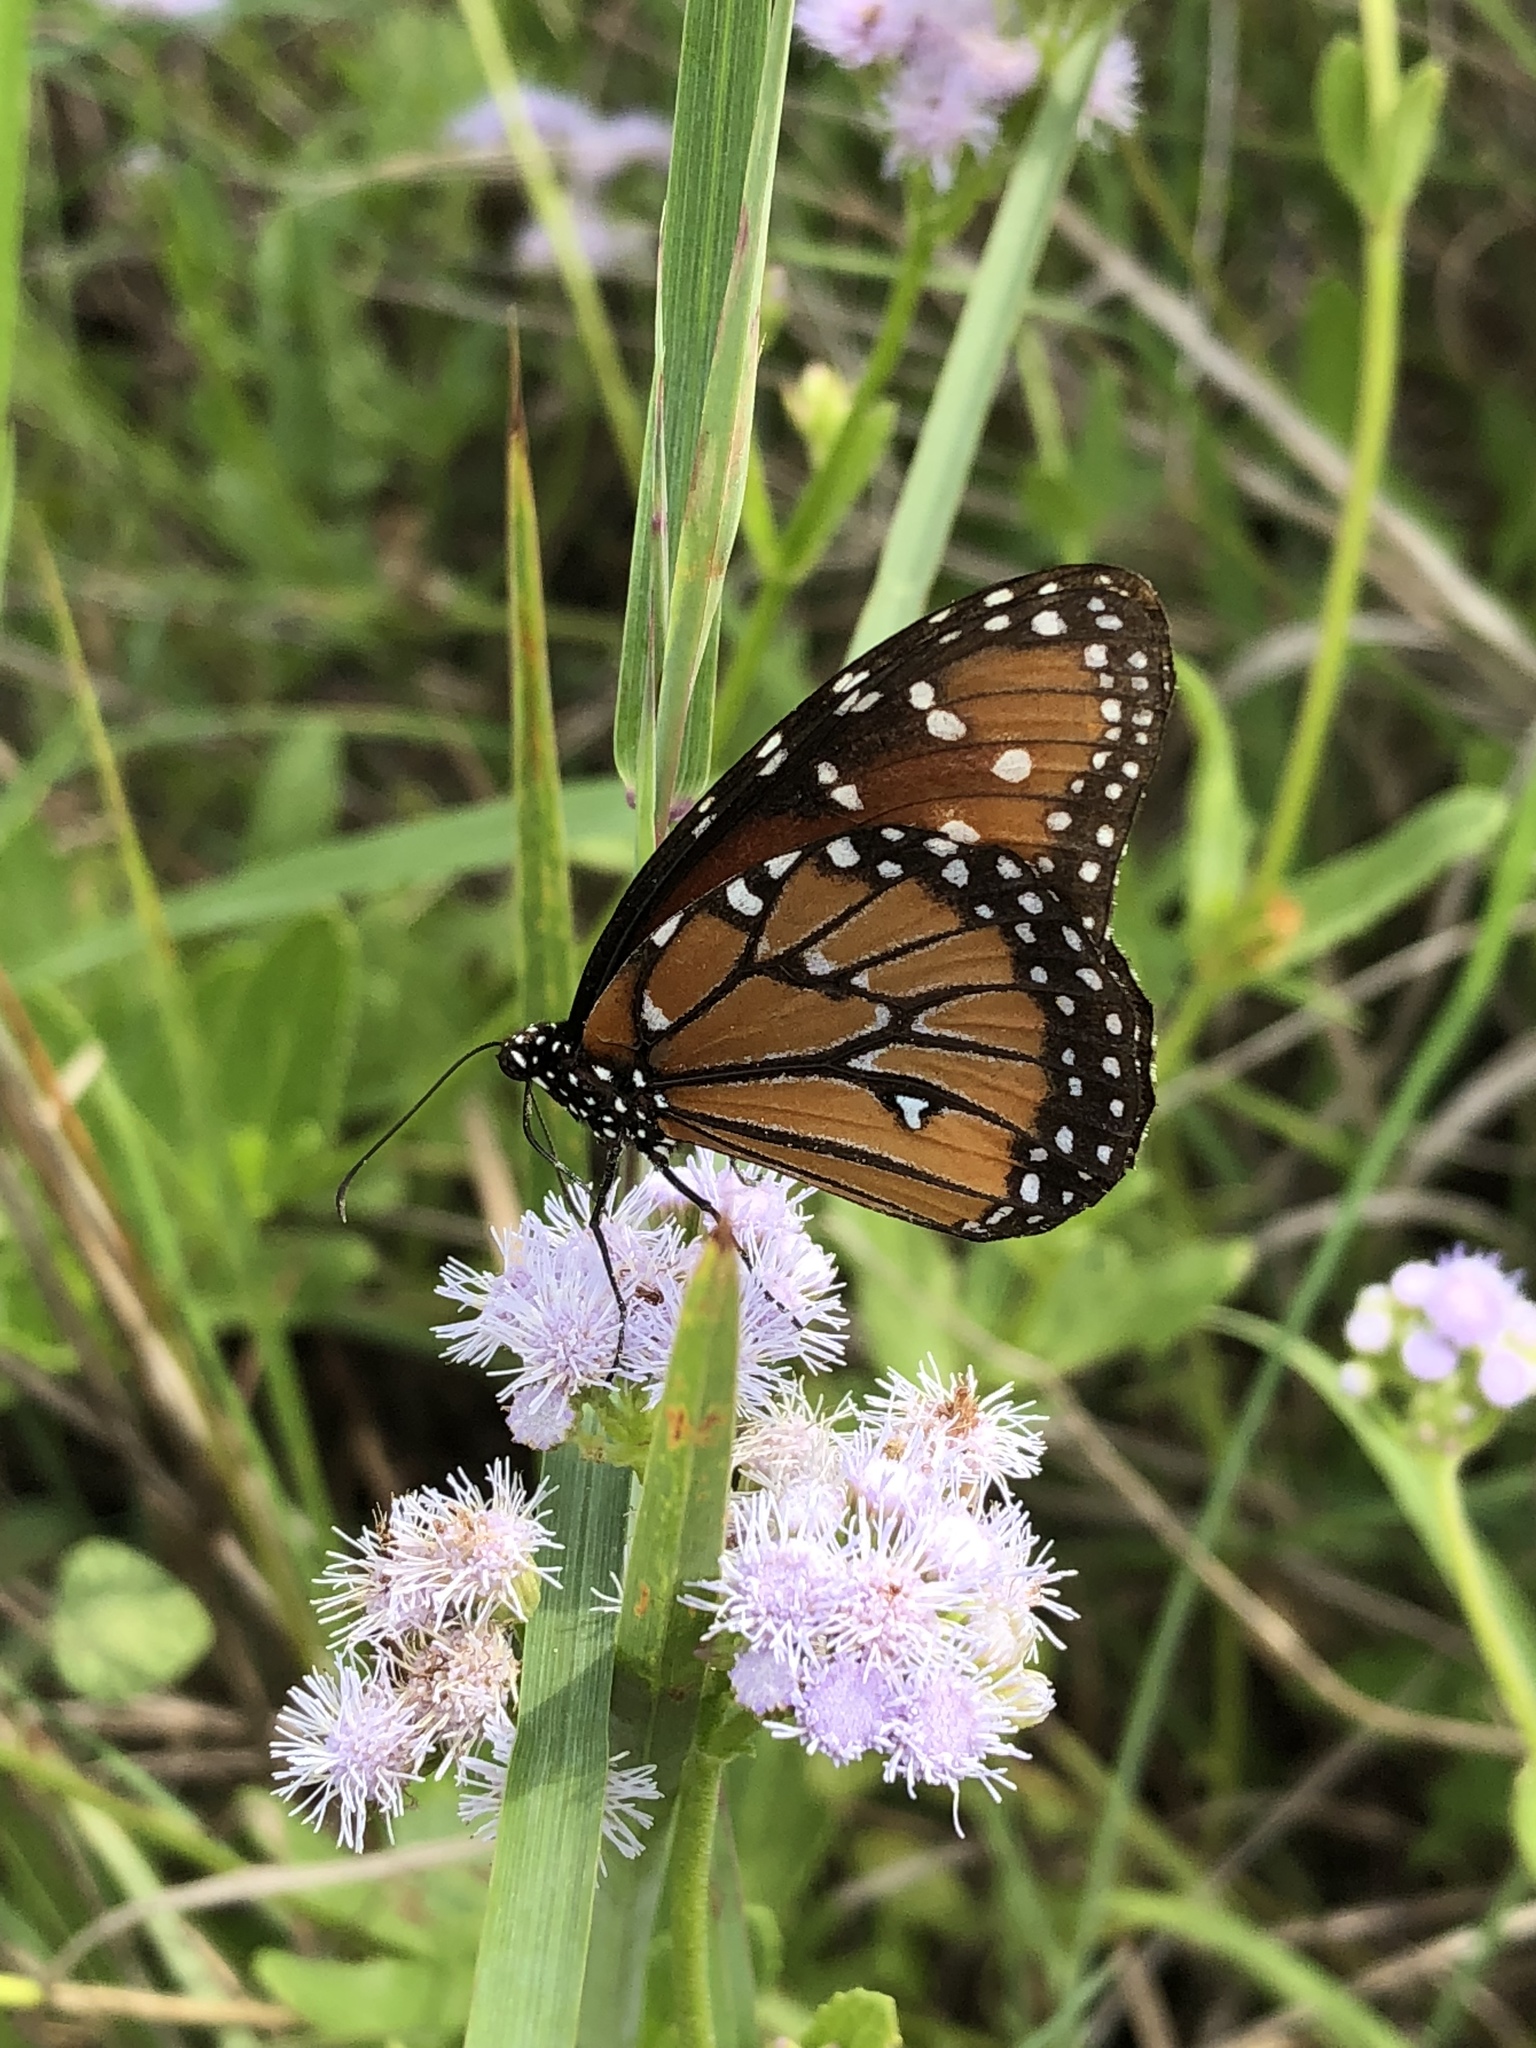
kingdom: Animalia
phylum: Arthropoda
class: Insecta
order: Lepidoptera
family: Nymphalidae
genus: Danaus
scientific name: Danaus gilippus
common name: Queen
